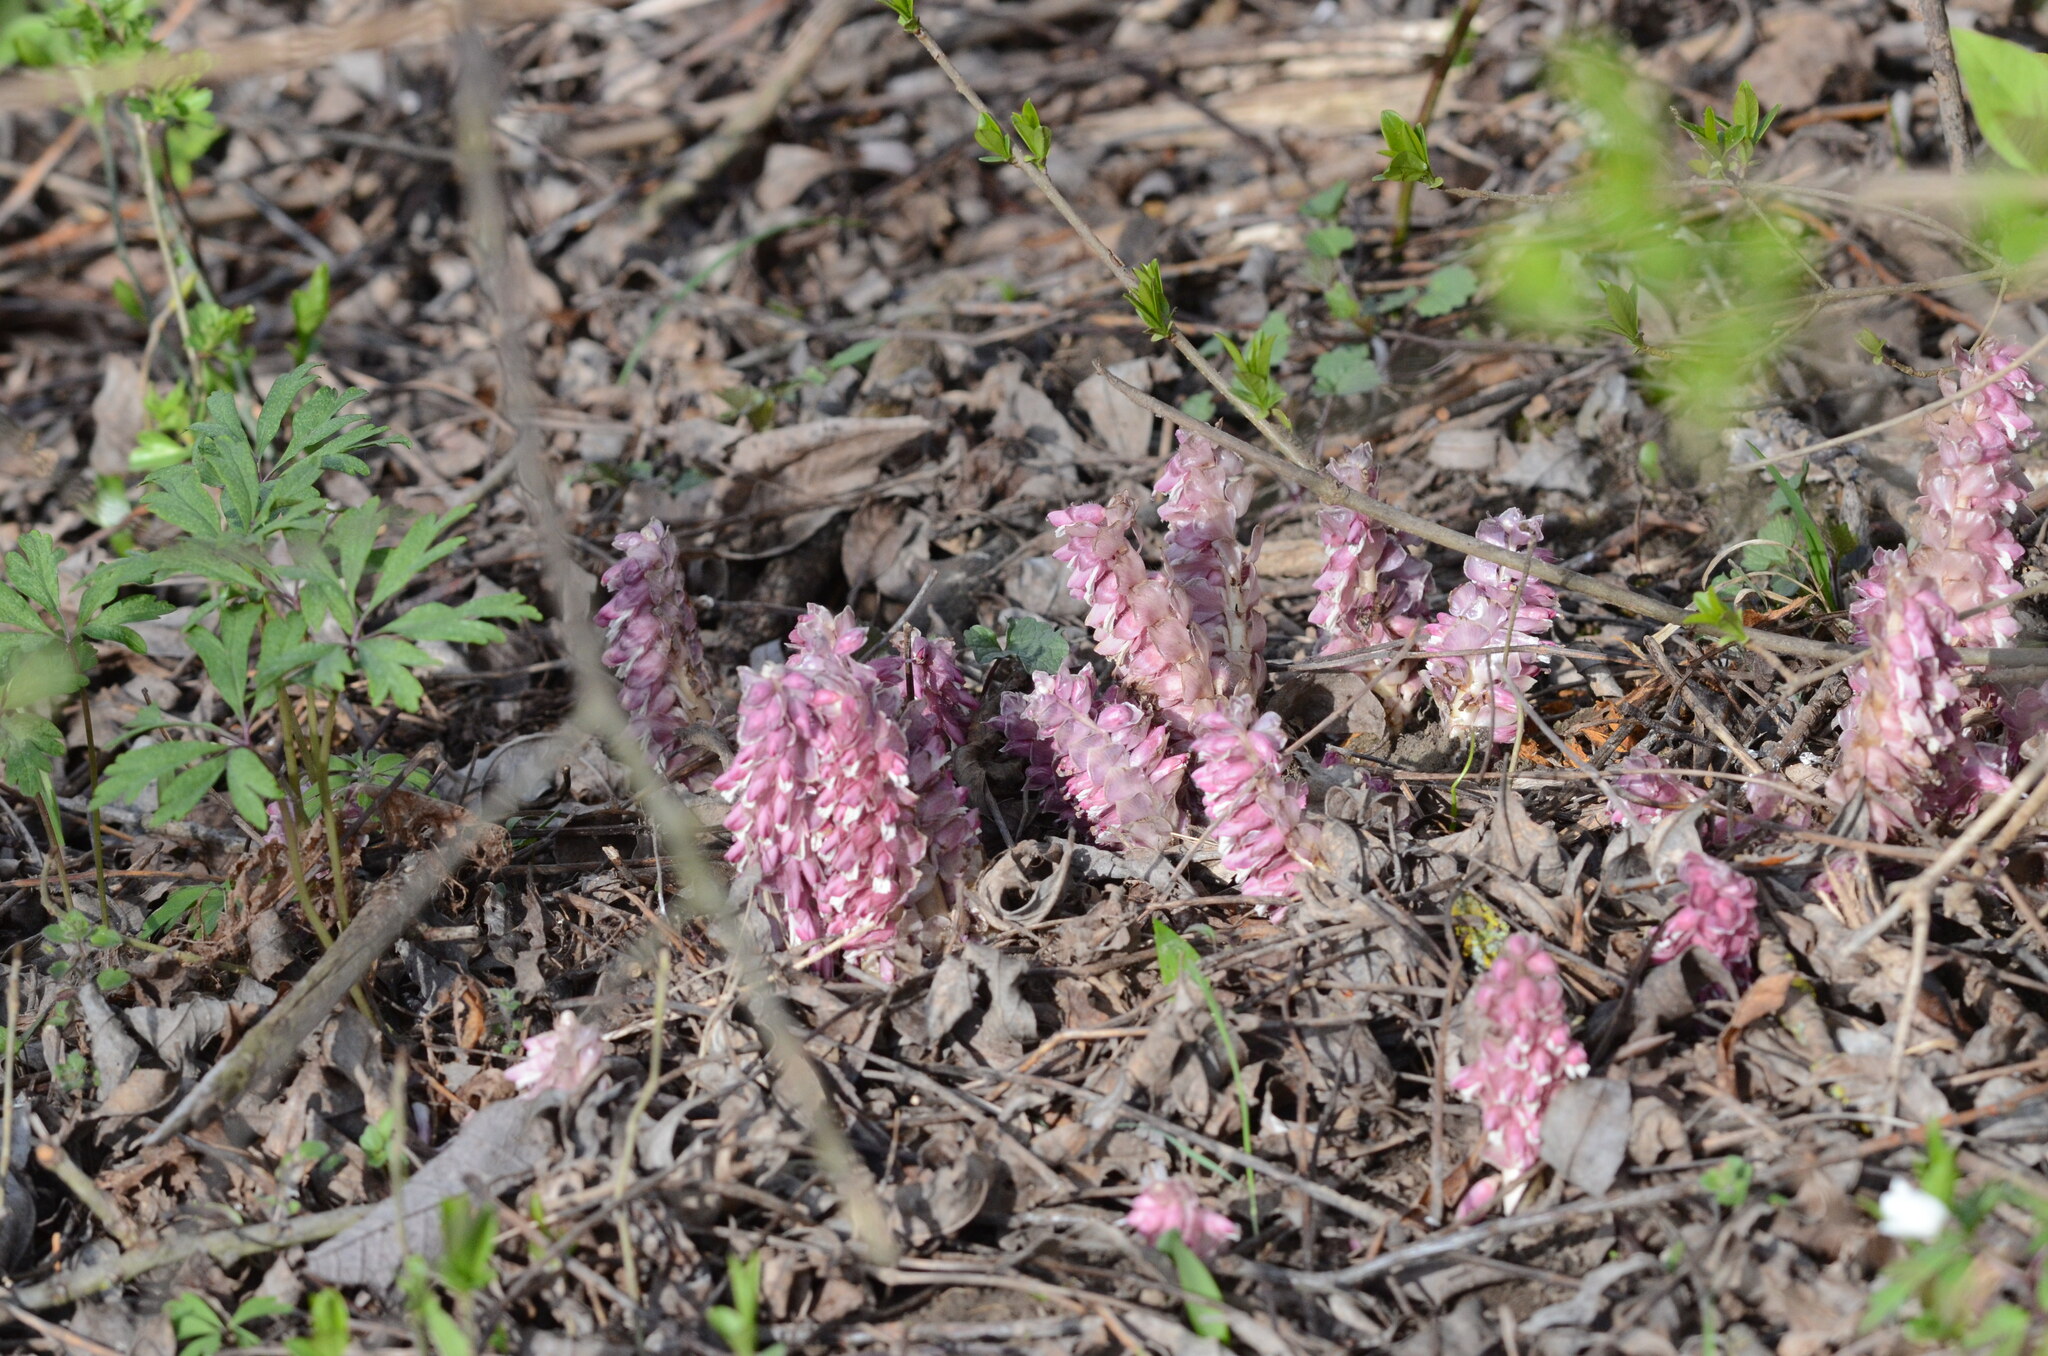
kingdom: Plantae
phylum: Tracheophyta
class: Magnoliopsida
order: Lamiales
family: Orobanchaceae
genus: Lathraea
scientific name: Lathraea squamaria
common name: Toothwort
